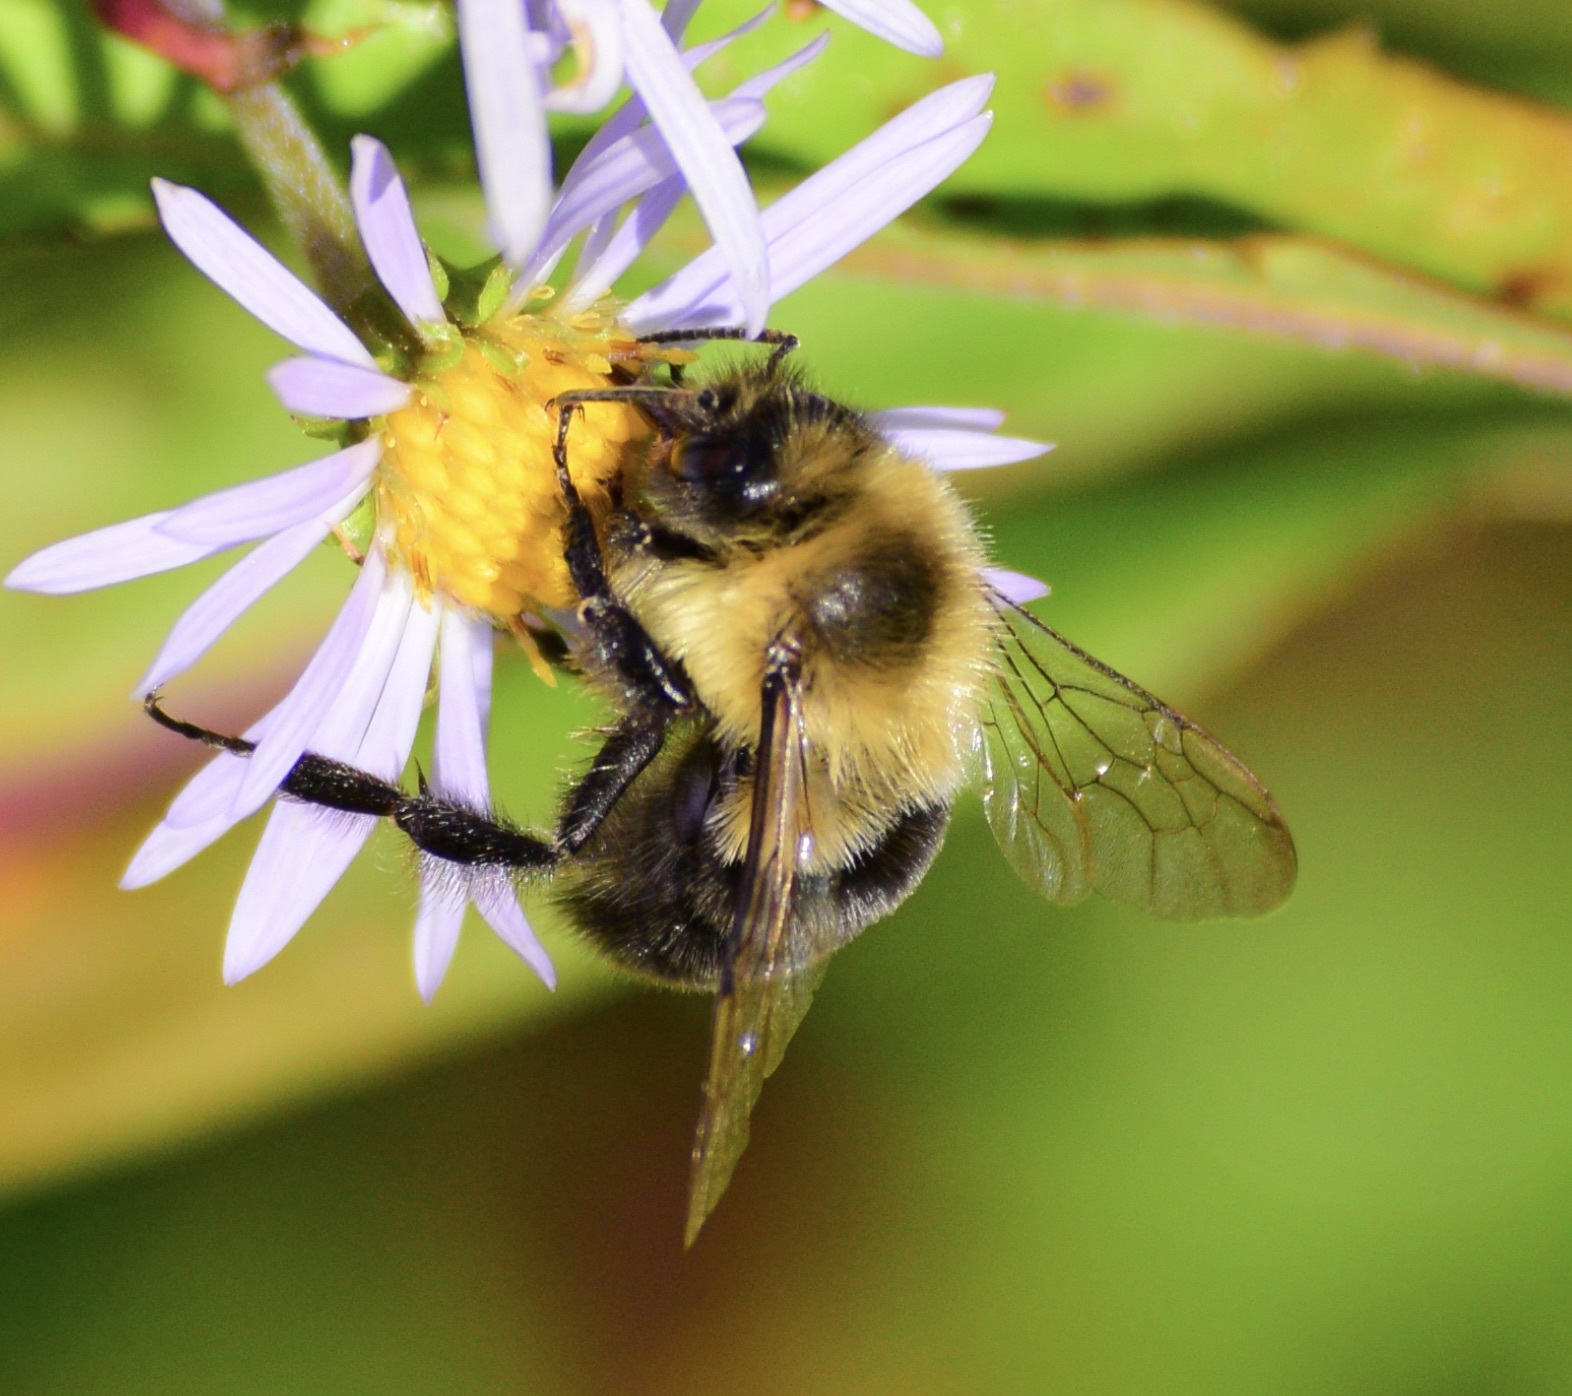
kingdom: Animalia
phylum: Arthropoda
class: Insecta
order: Hymenoptera
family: Apidae
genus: Bombus
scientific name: Bombus impatiens
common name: Common eastern bumble bee
